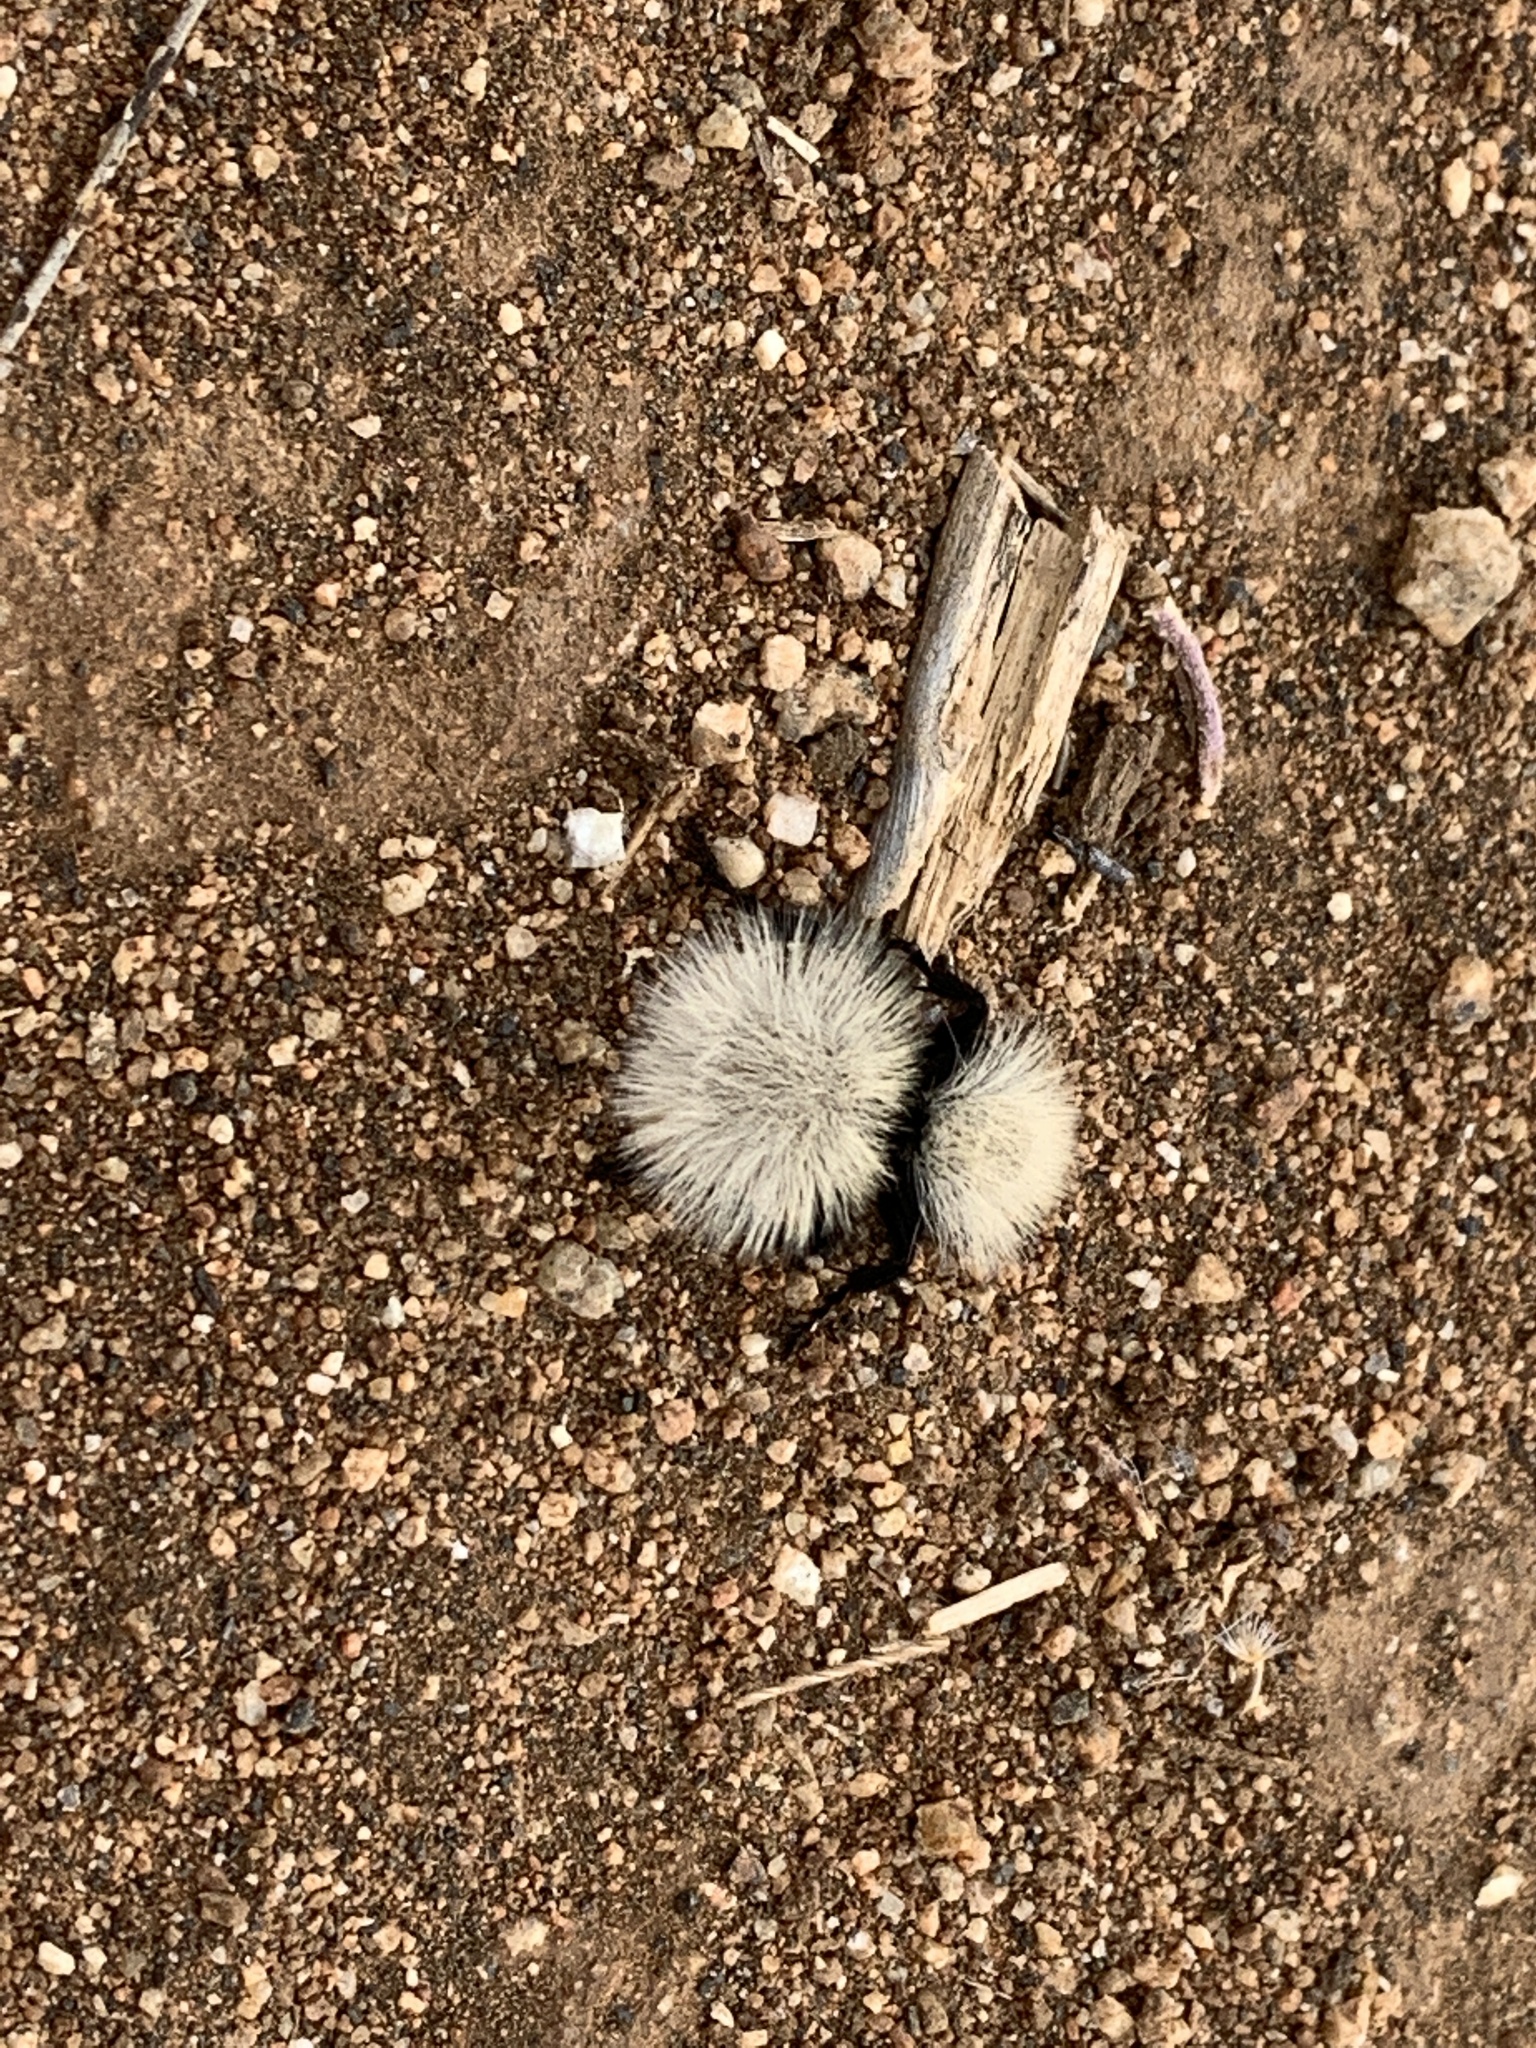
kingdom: Animalia
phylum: Arthropoda
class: Insecta
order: Hymenoptera
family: Mutillidae
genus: Dasymutilla
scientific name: Dasymutilla
